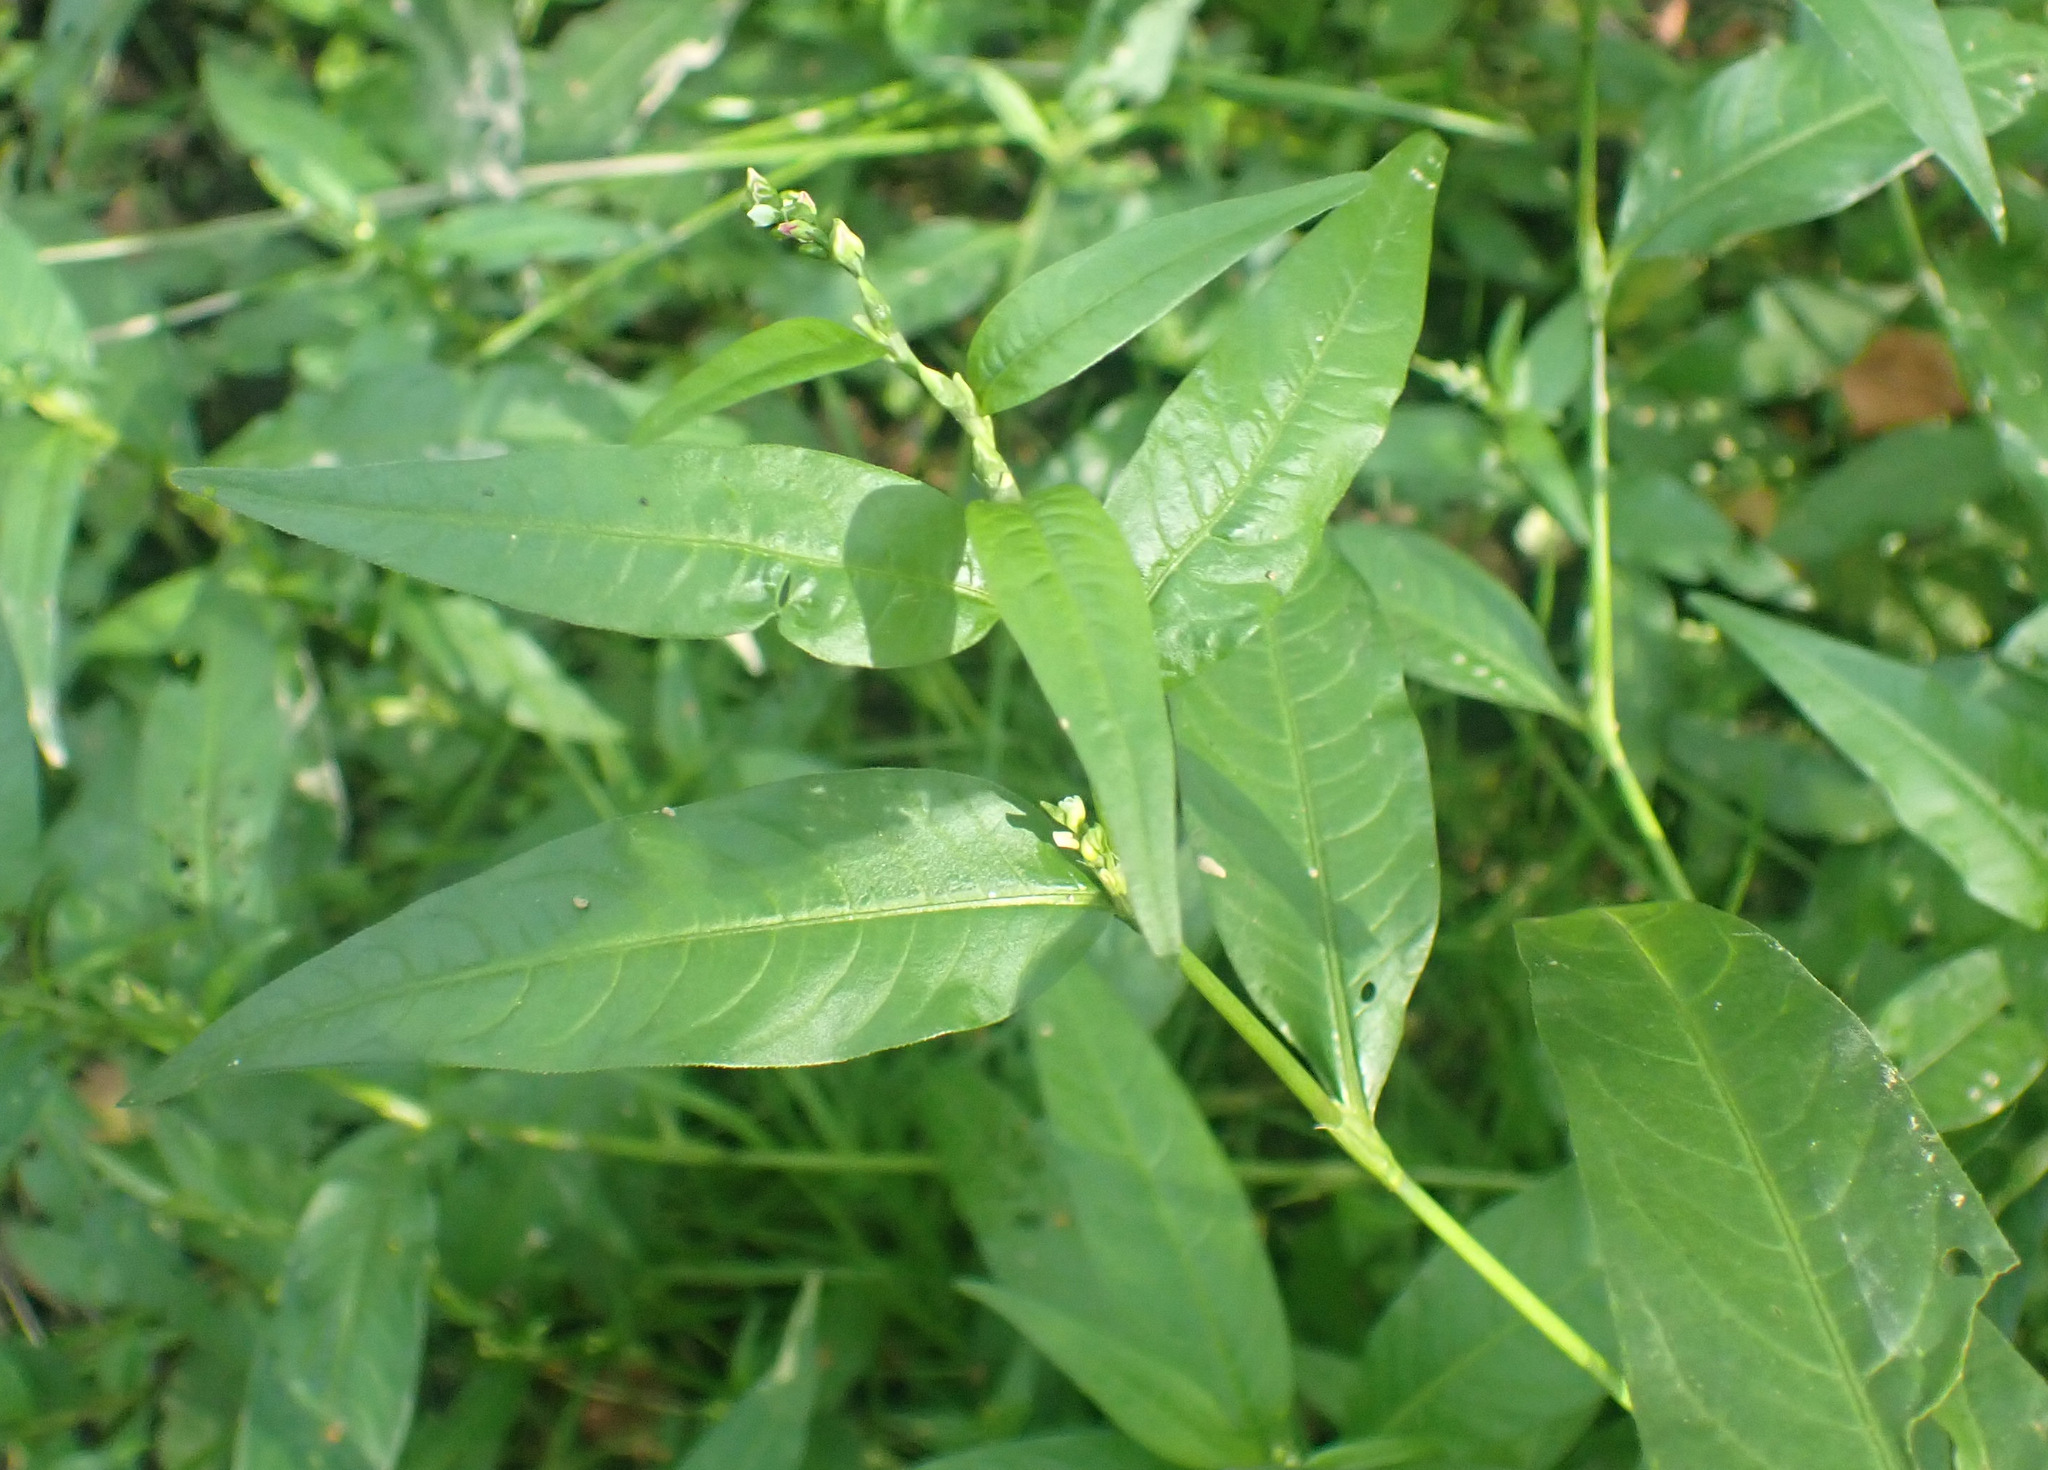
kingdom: Plantae
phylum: Tracheophyta
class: Magnoliopsida
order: Caryophyllales
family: Polygonaceae
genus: Persicaria
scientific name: Persicaria mitis
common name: Tasteless water-pepper
